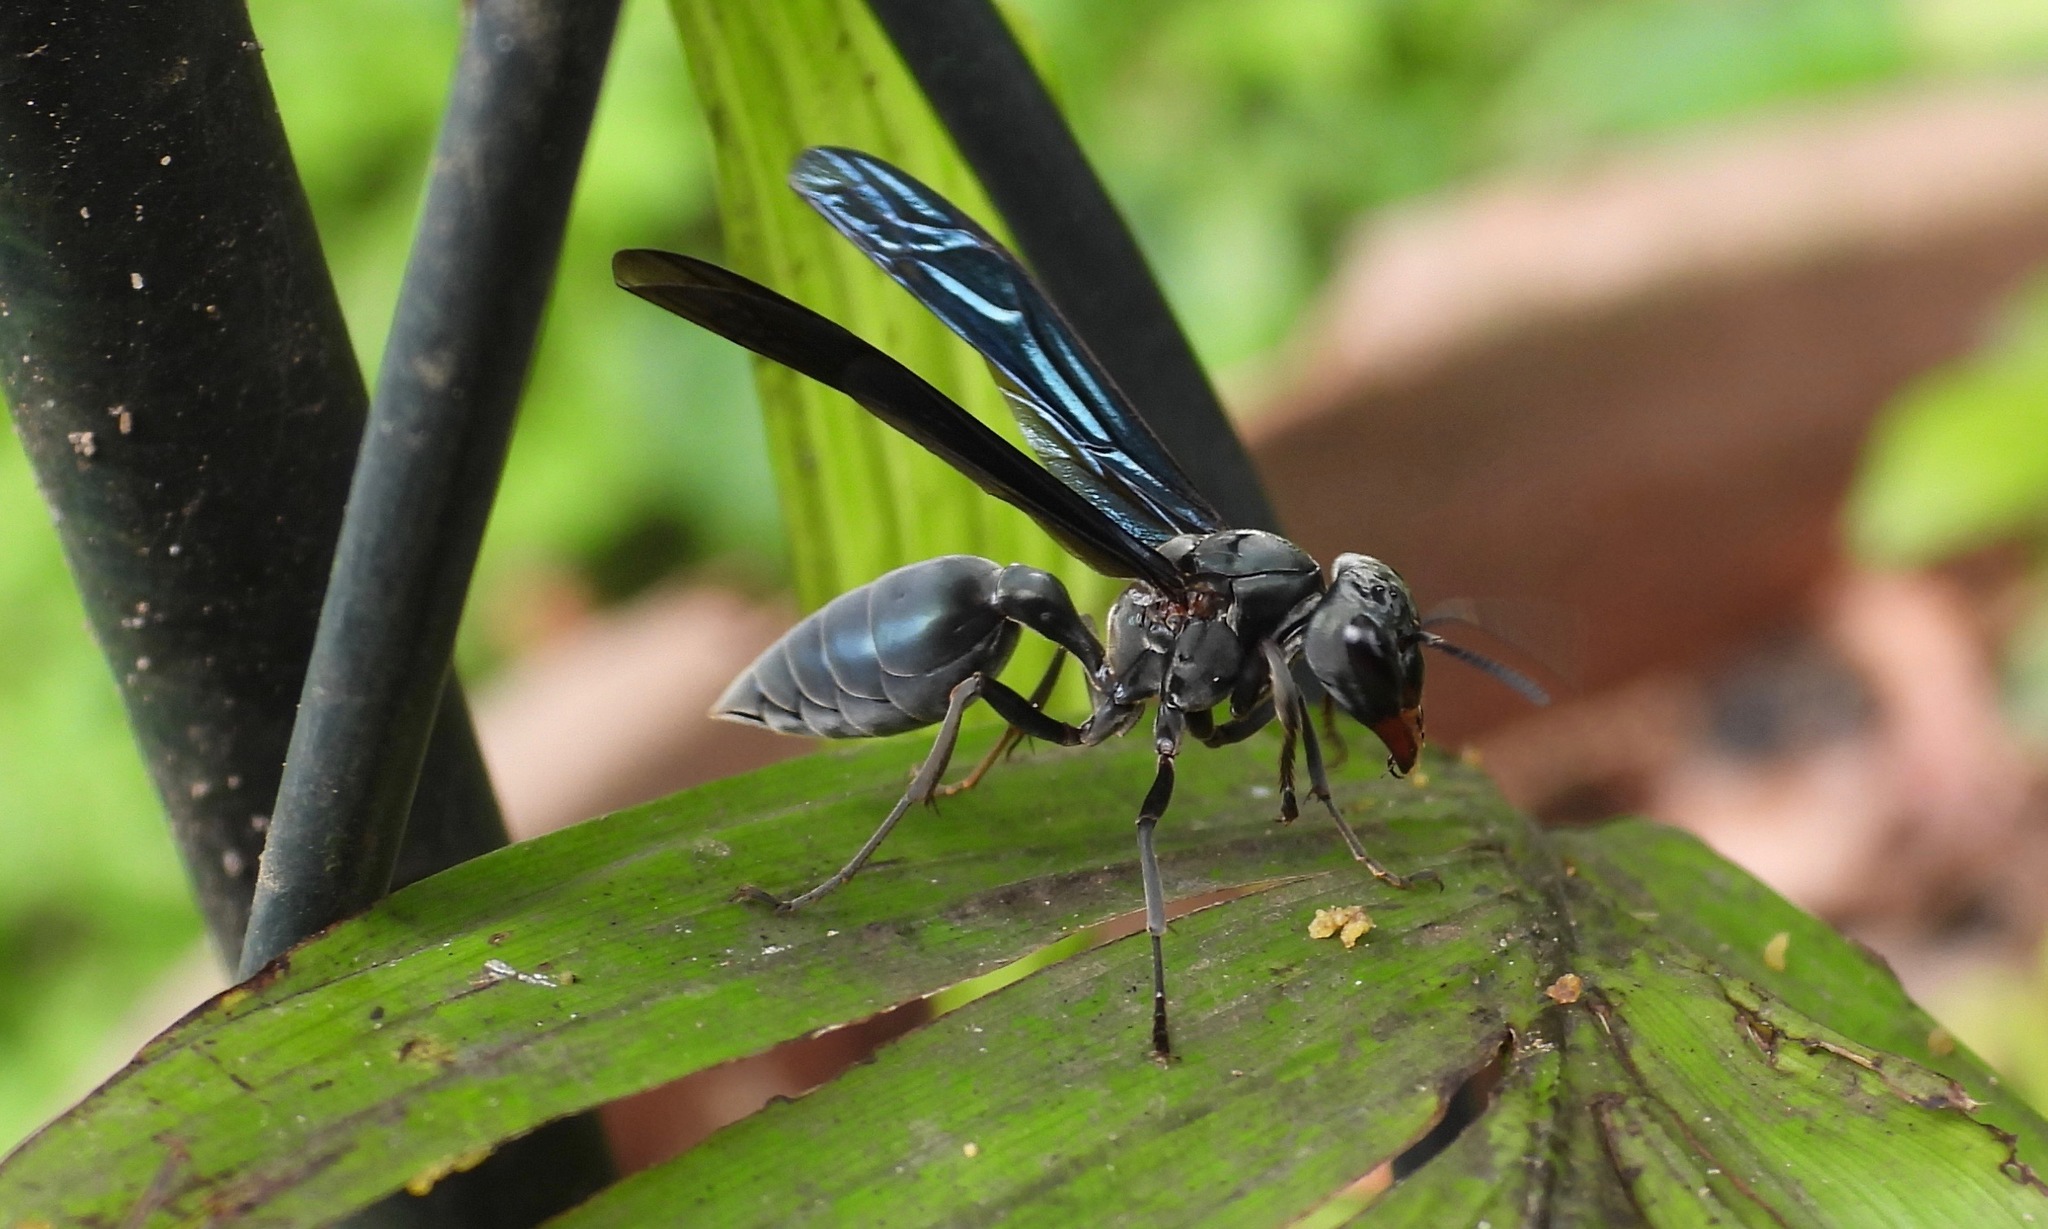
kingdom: Animalia
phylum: Arthropoda
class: Insecta
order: Hymenoptera
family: Vespidae
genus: Synoeca
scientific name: Synoeca septentrionalis
